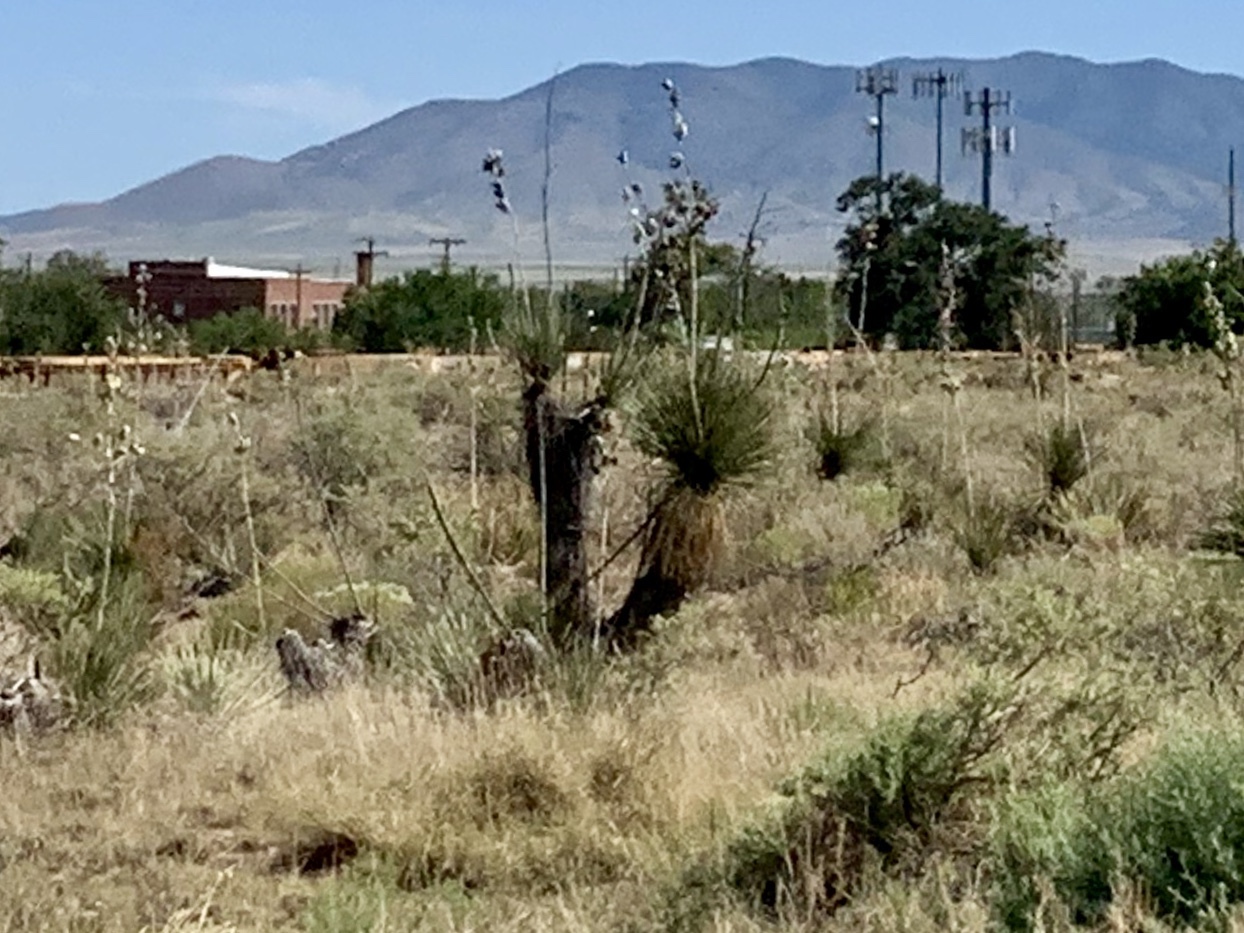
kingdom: Plantae
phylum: Tracheophyta
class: Liliopsida
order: Asparagales
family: Asparagaceae
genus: Yucca
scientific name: Yucca elata
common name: Palmella
